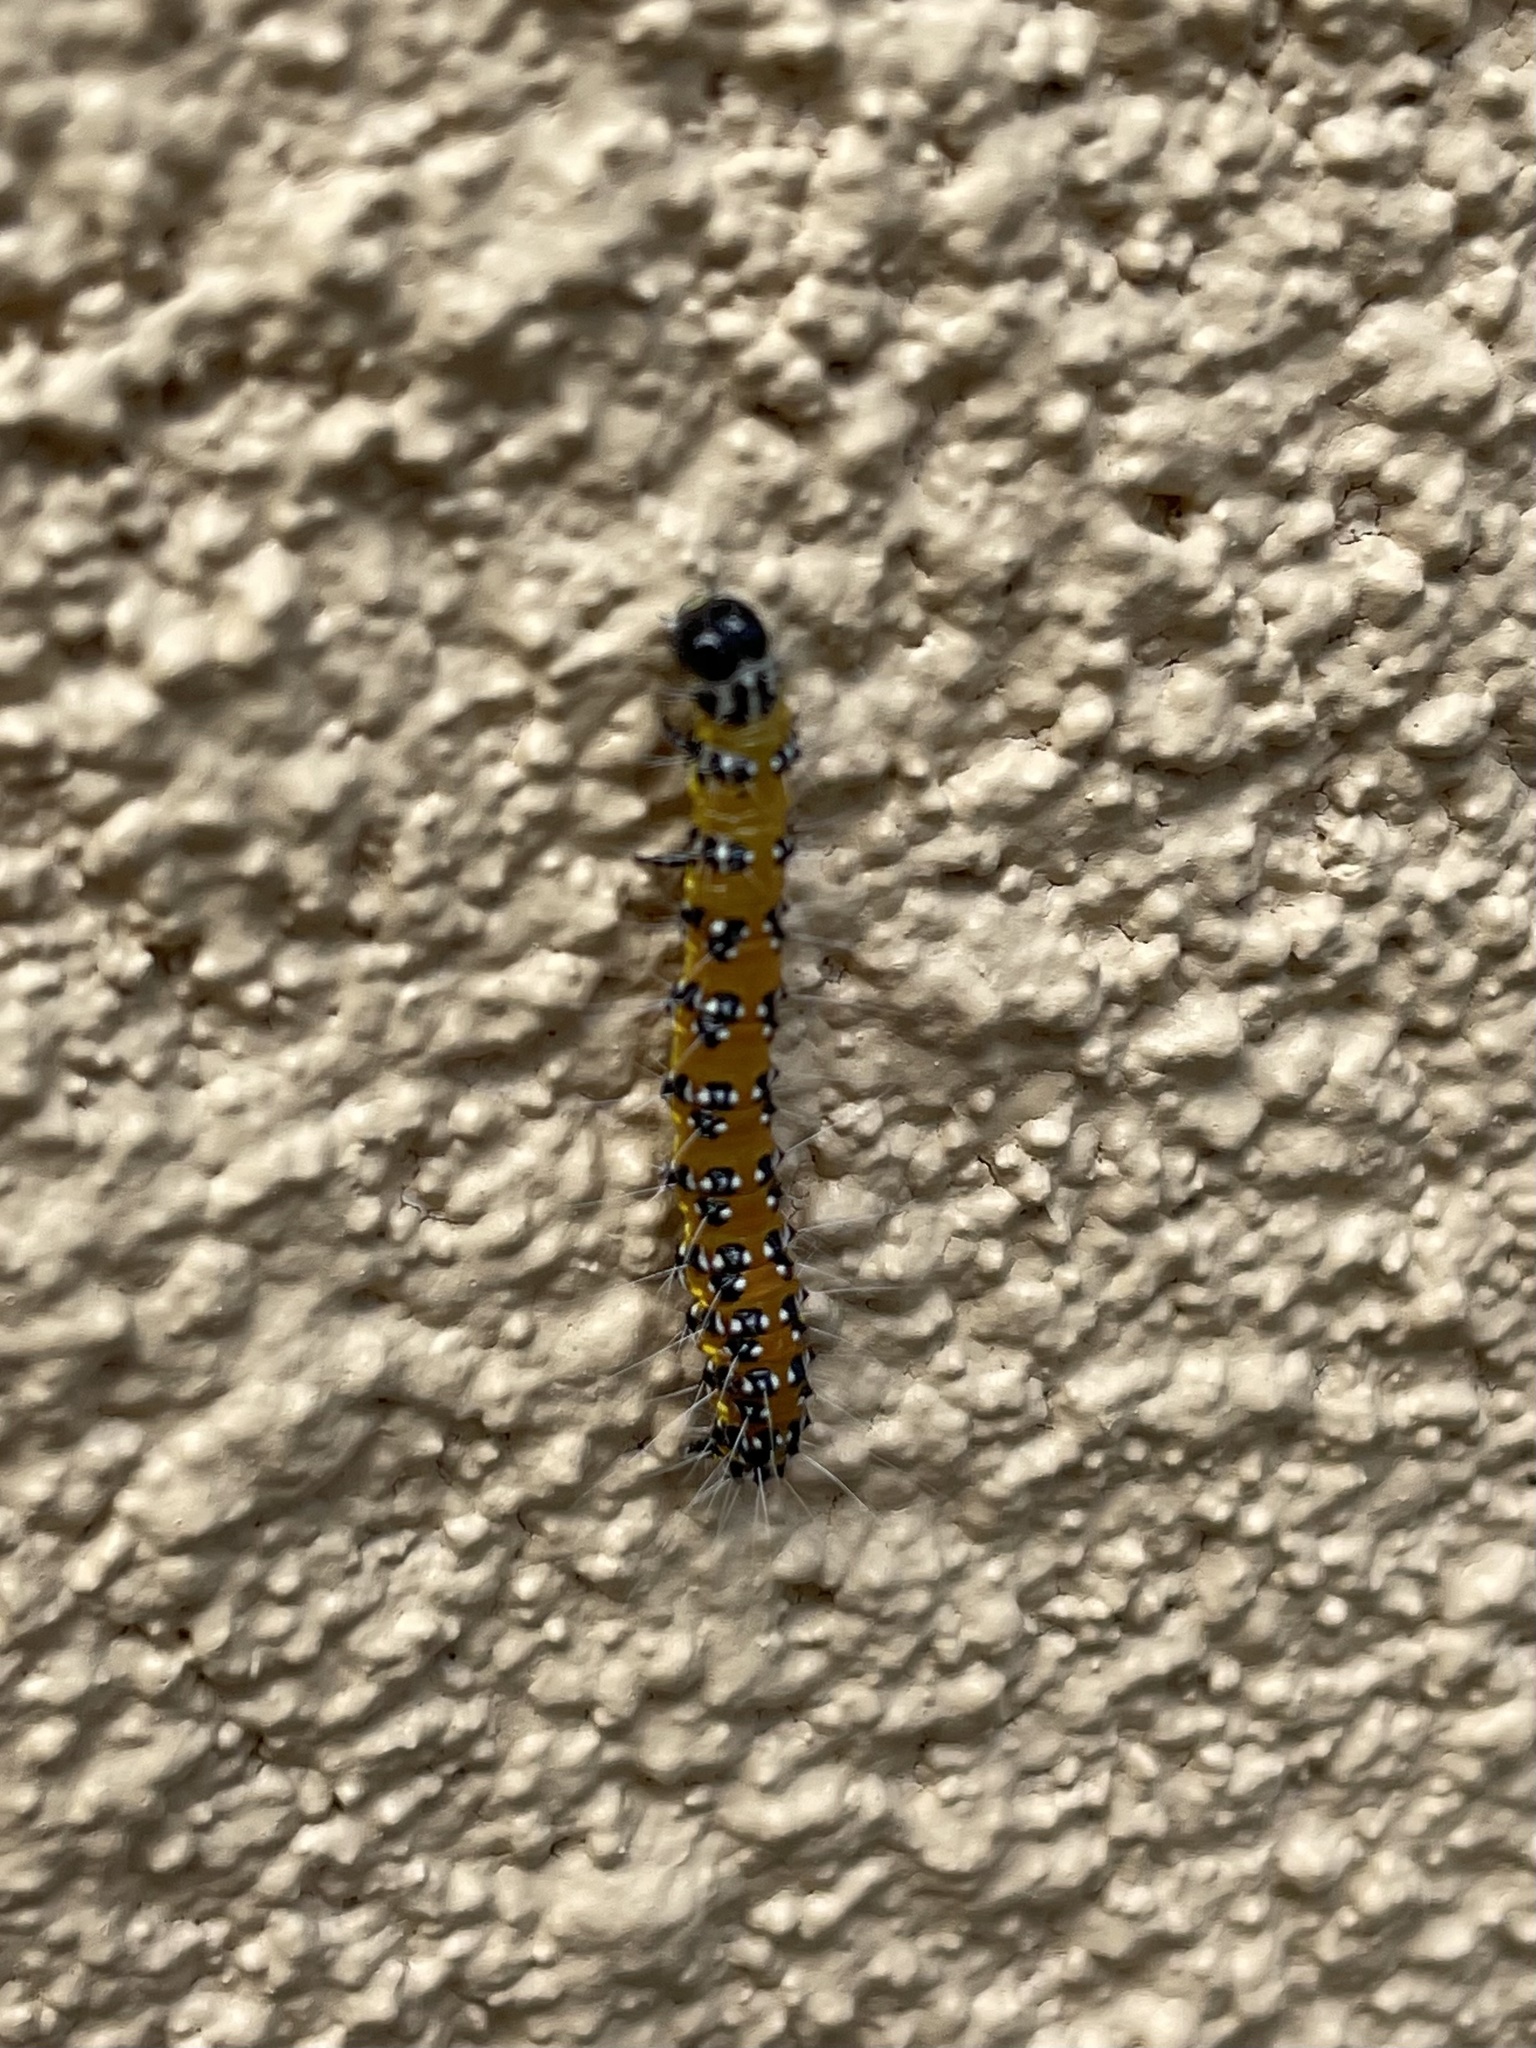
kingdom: Animalia
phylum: Arthropoda
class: Insecta
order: Lepidoptera
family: Crambidae
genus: Uresiphita
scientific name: Uresiphita reversalis
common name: Genista broom moth
